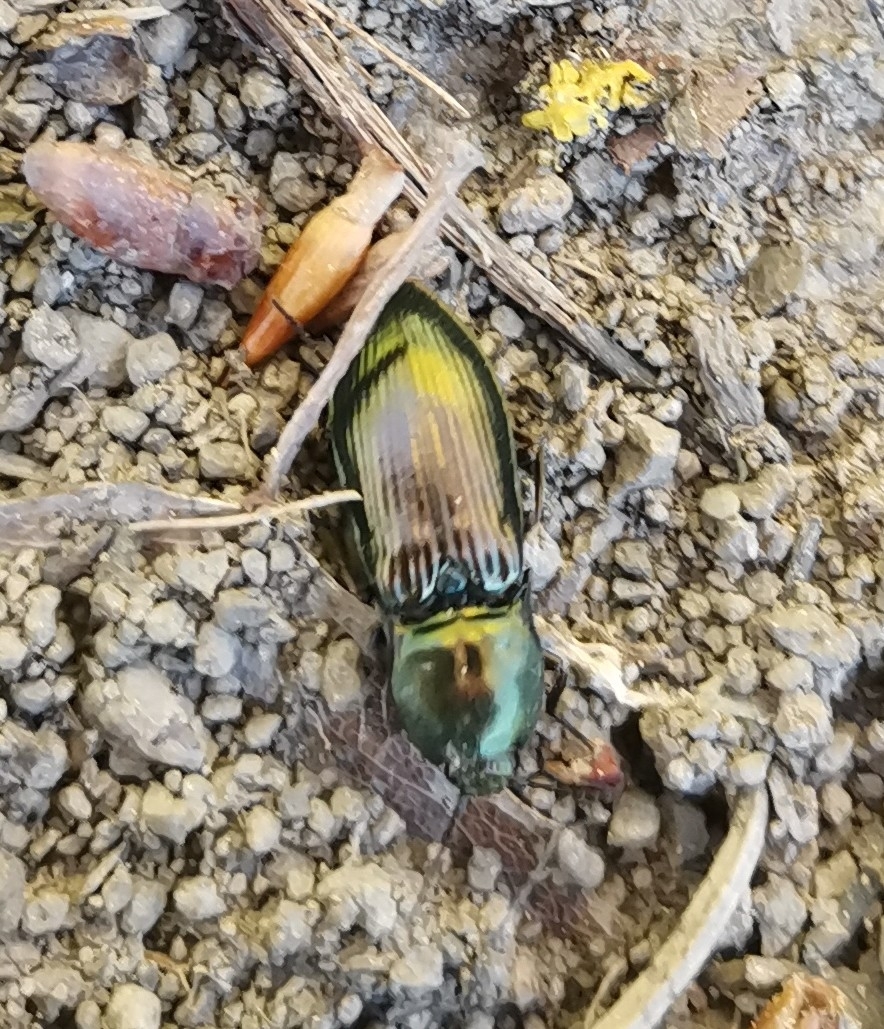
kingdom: Animalia
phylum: Arthropoda
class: Insecta
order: Coleoptera
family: Elateridae
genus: Selatosomus
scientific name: Selatosomus aeneus
